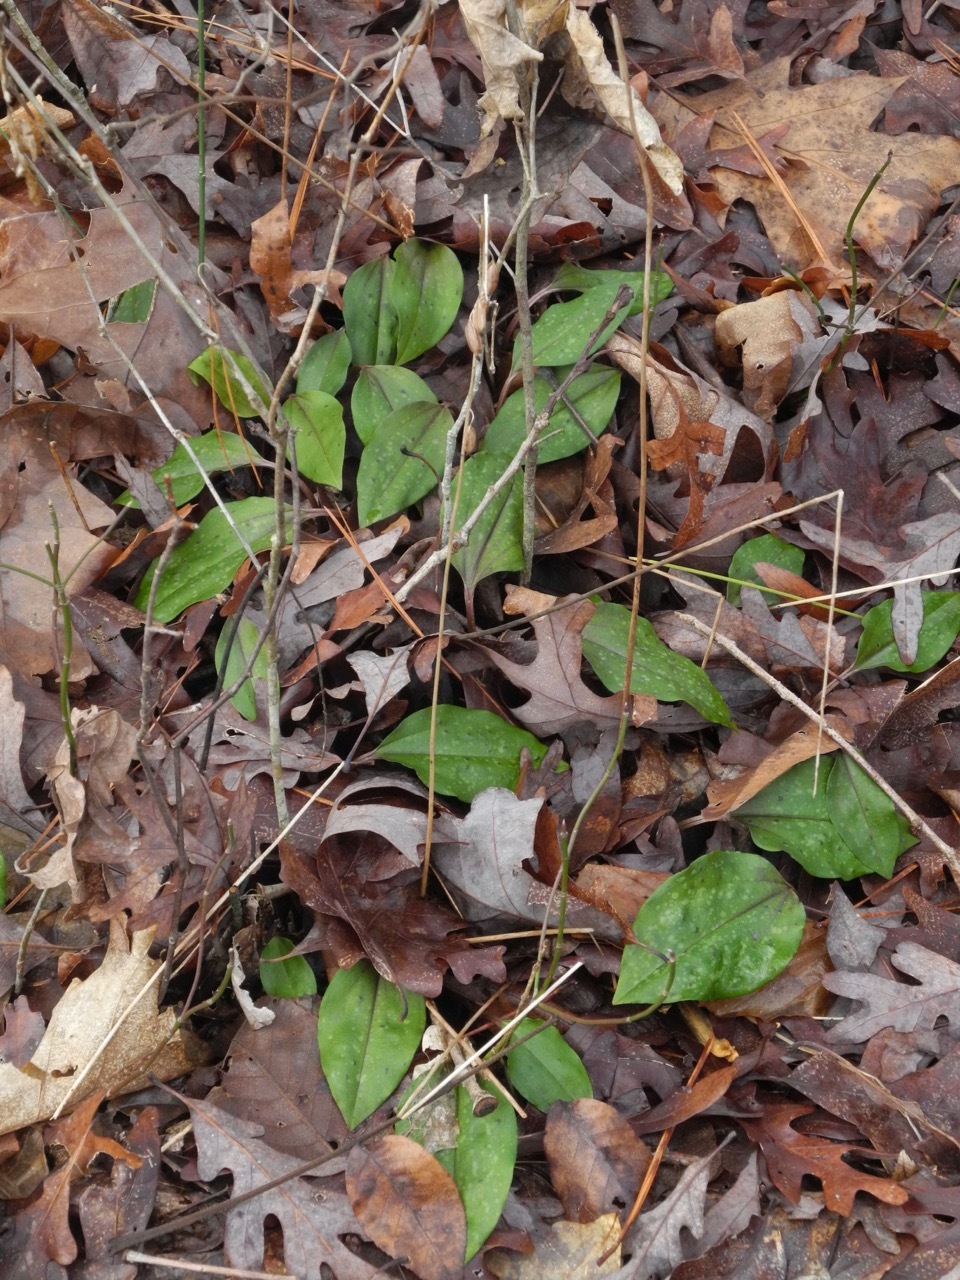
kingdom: Plantae
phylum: Tracheophyta
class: Liliopsida
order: Asparagales
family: Orchidaceae
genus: Tipularia
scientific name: Tipularia discolor
